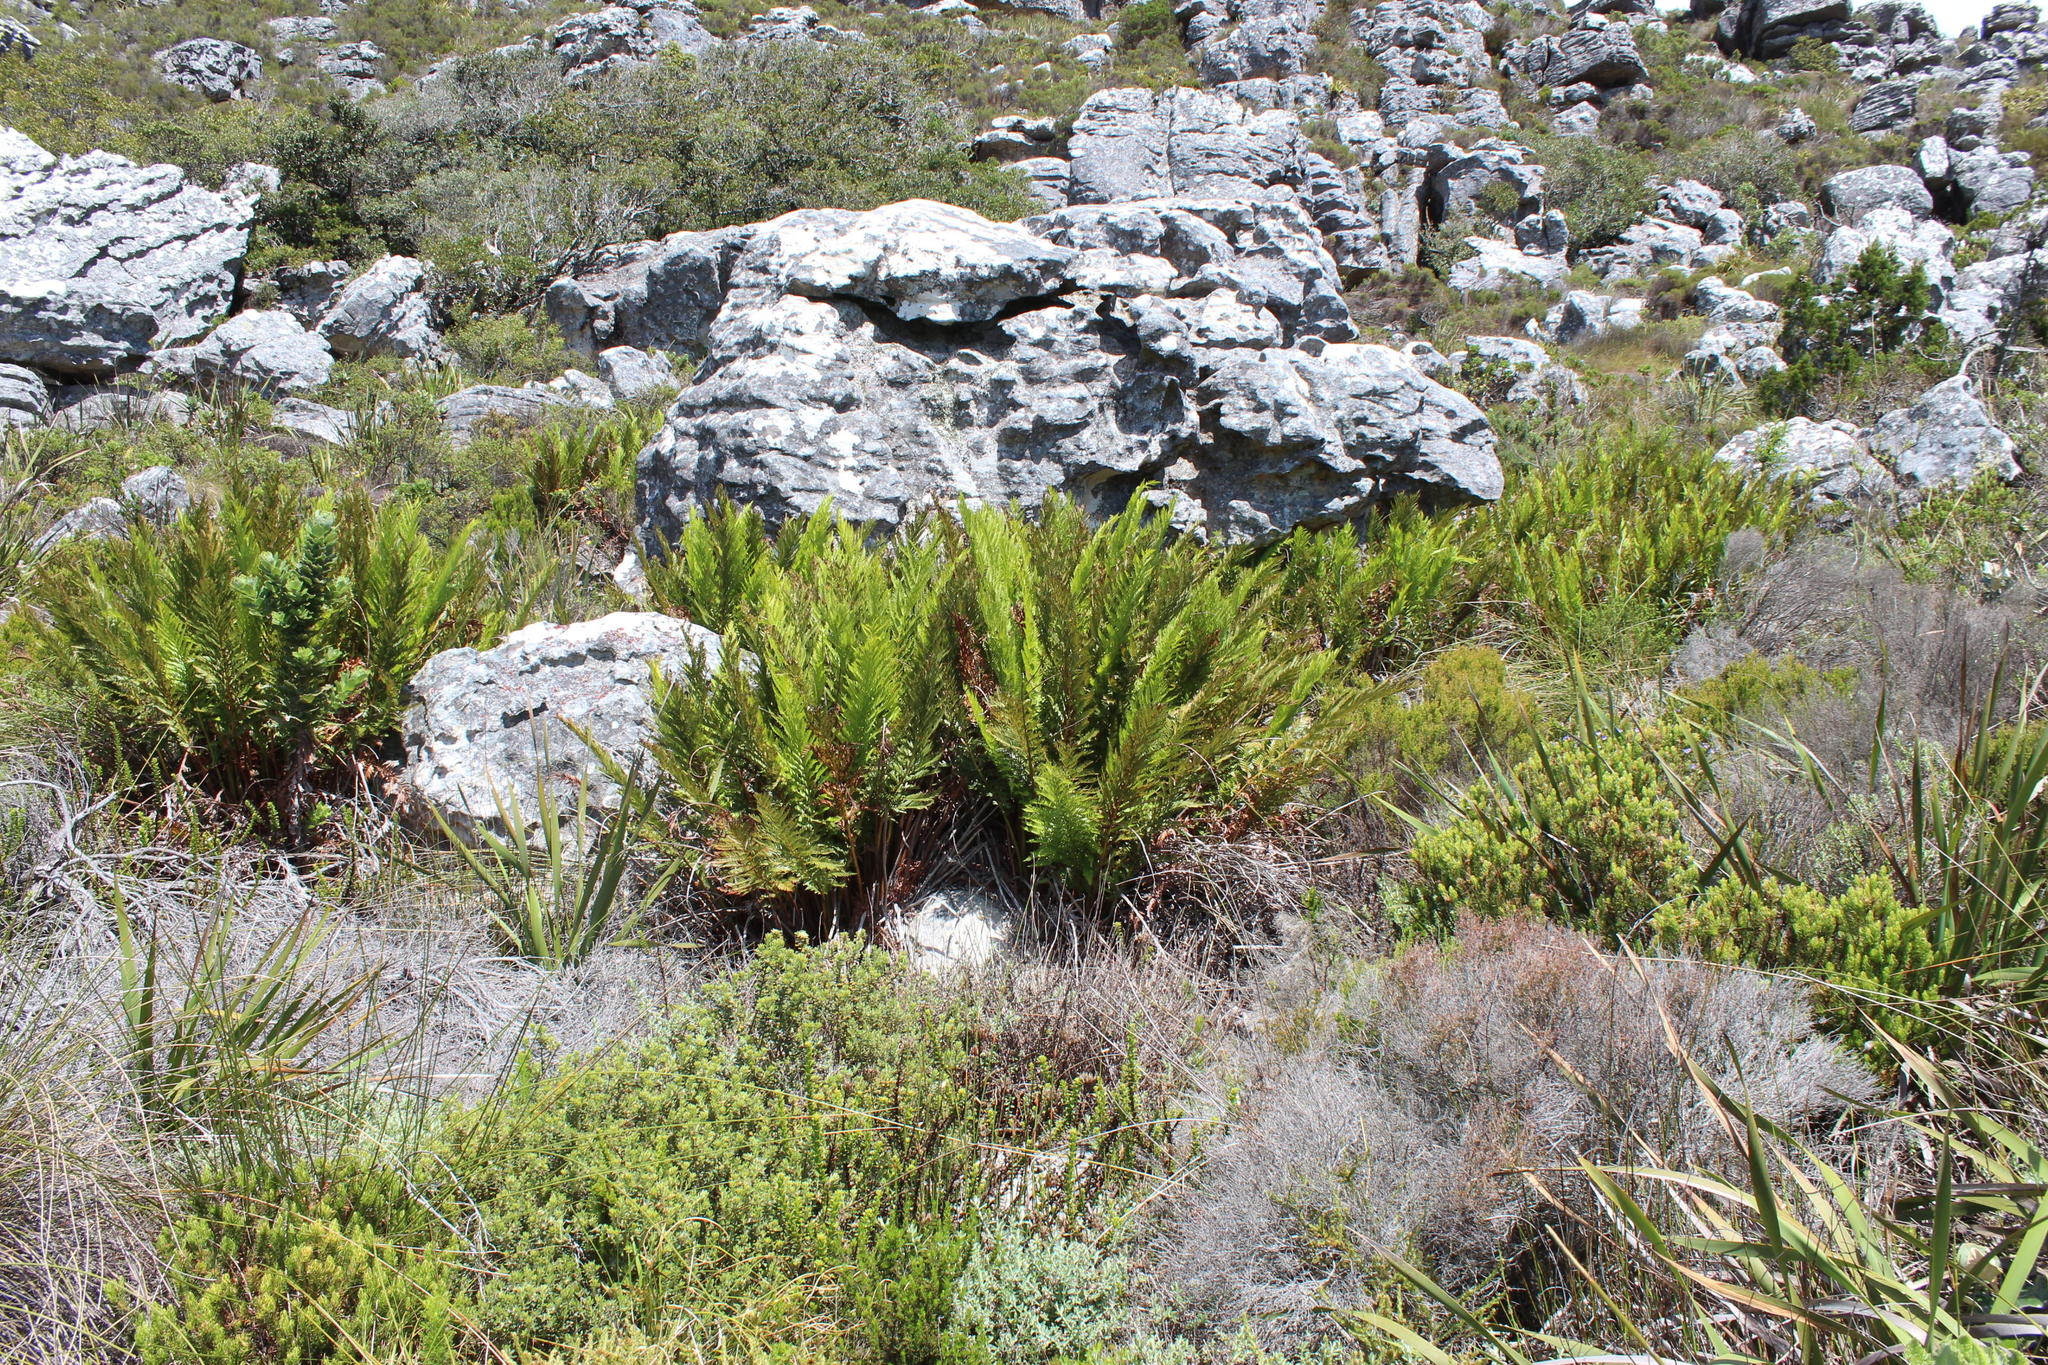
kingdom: Plantae
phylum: Tracheophyta
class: Polypodiopsida
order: Osmundales
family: Osmundaceae
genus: Todea
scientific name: Todea barbara
